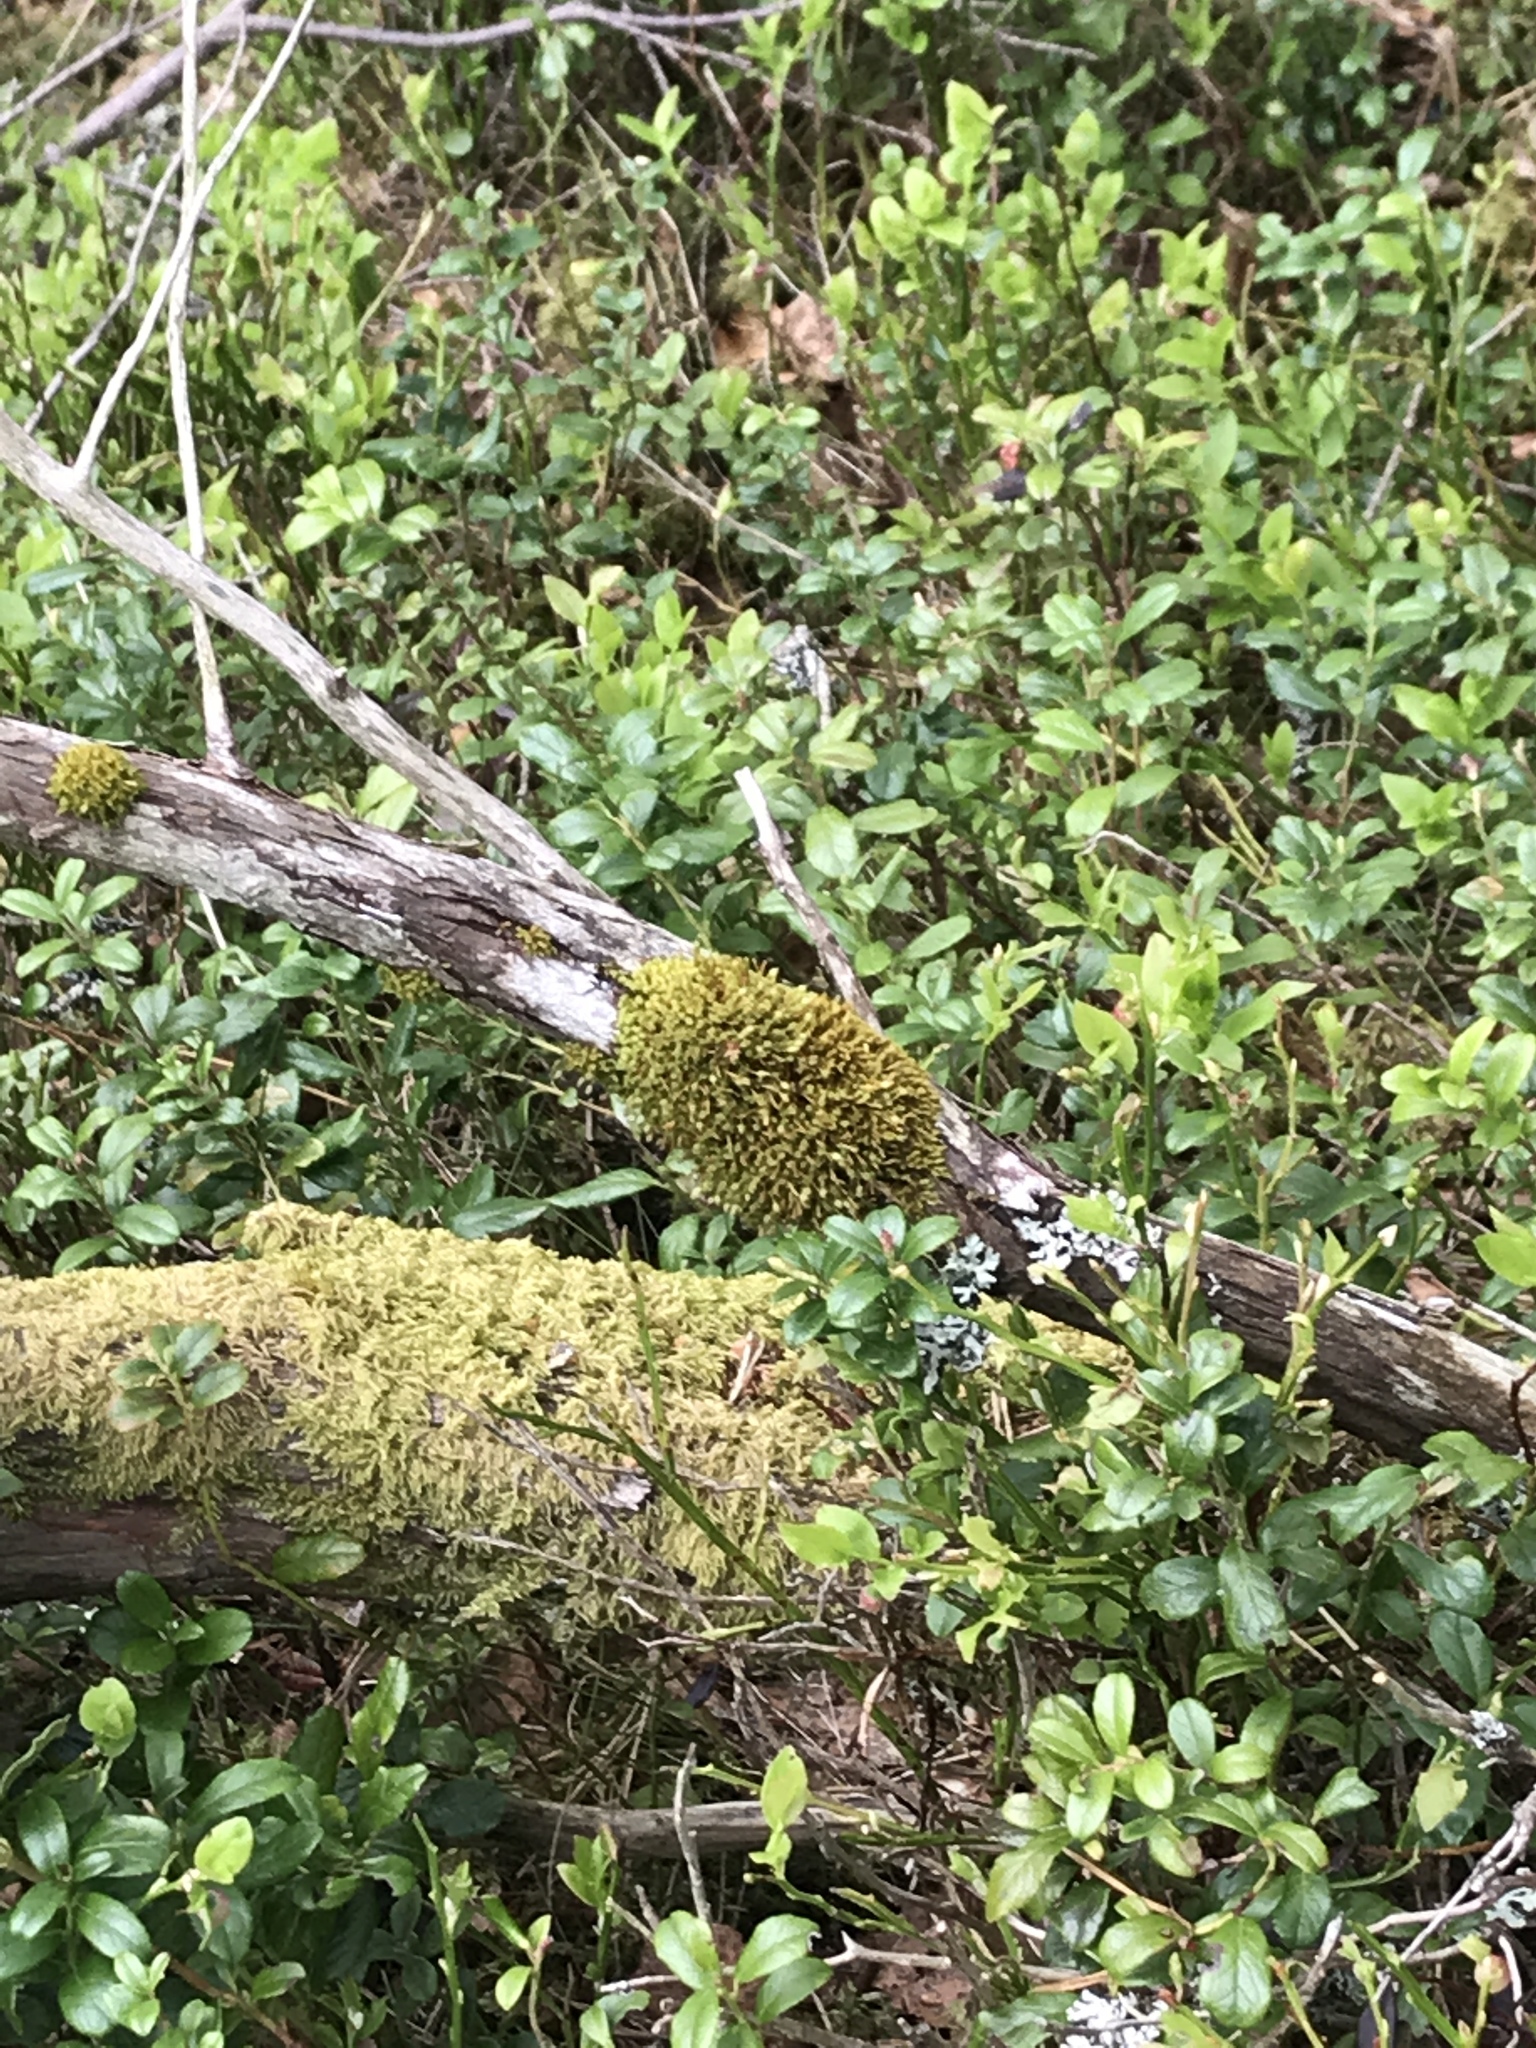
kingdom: Plantae
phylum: Bryophyta
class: Bryopsida
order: Orthotrichales
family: Orthotrichaceae
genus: Ulota
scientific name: Ulota crispa
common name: Crisped pincushion moss
